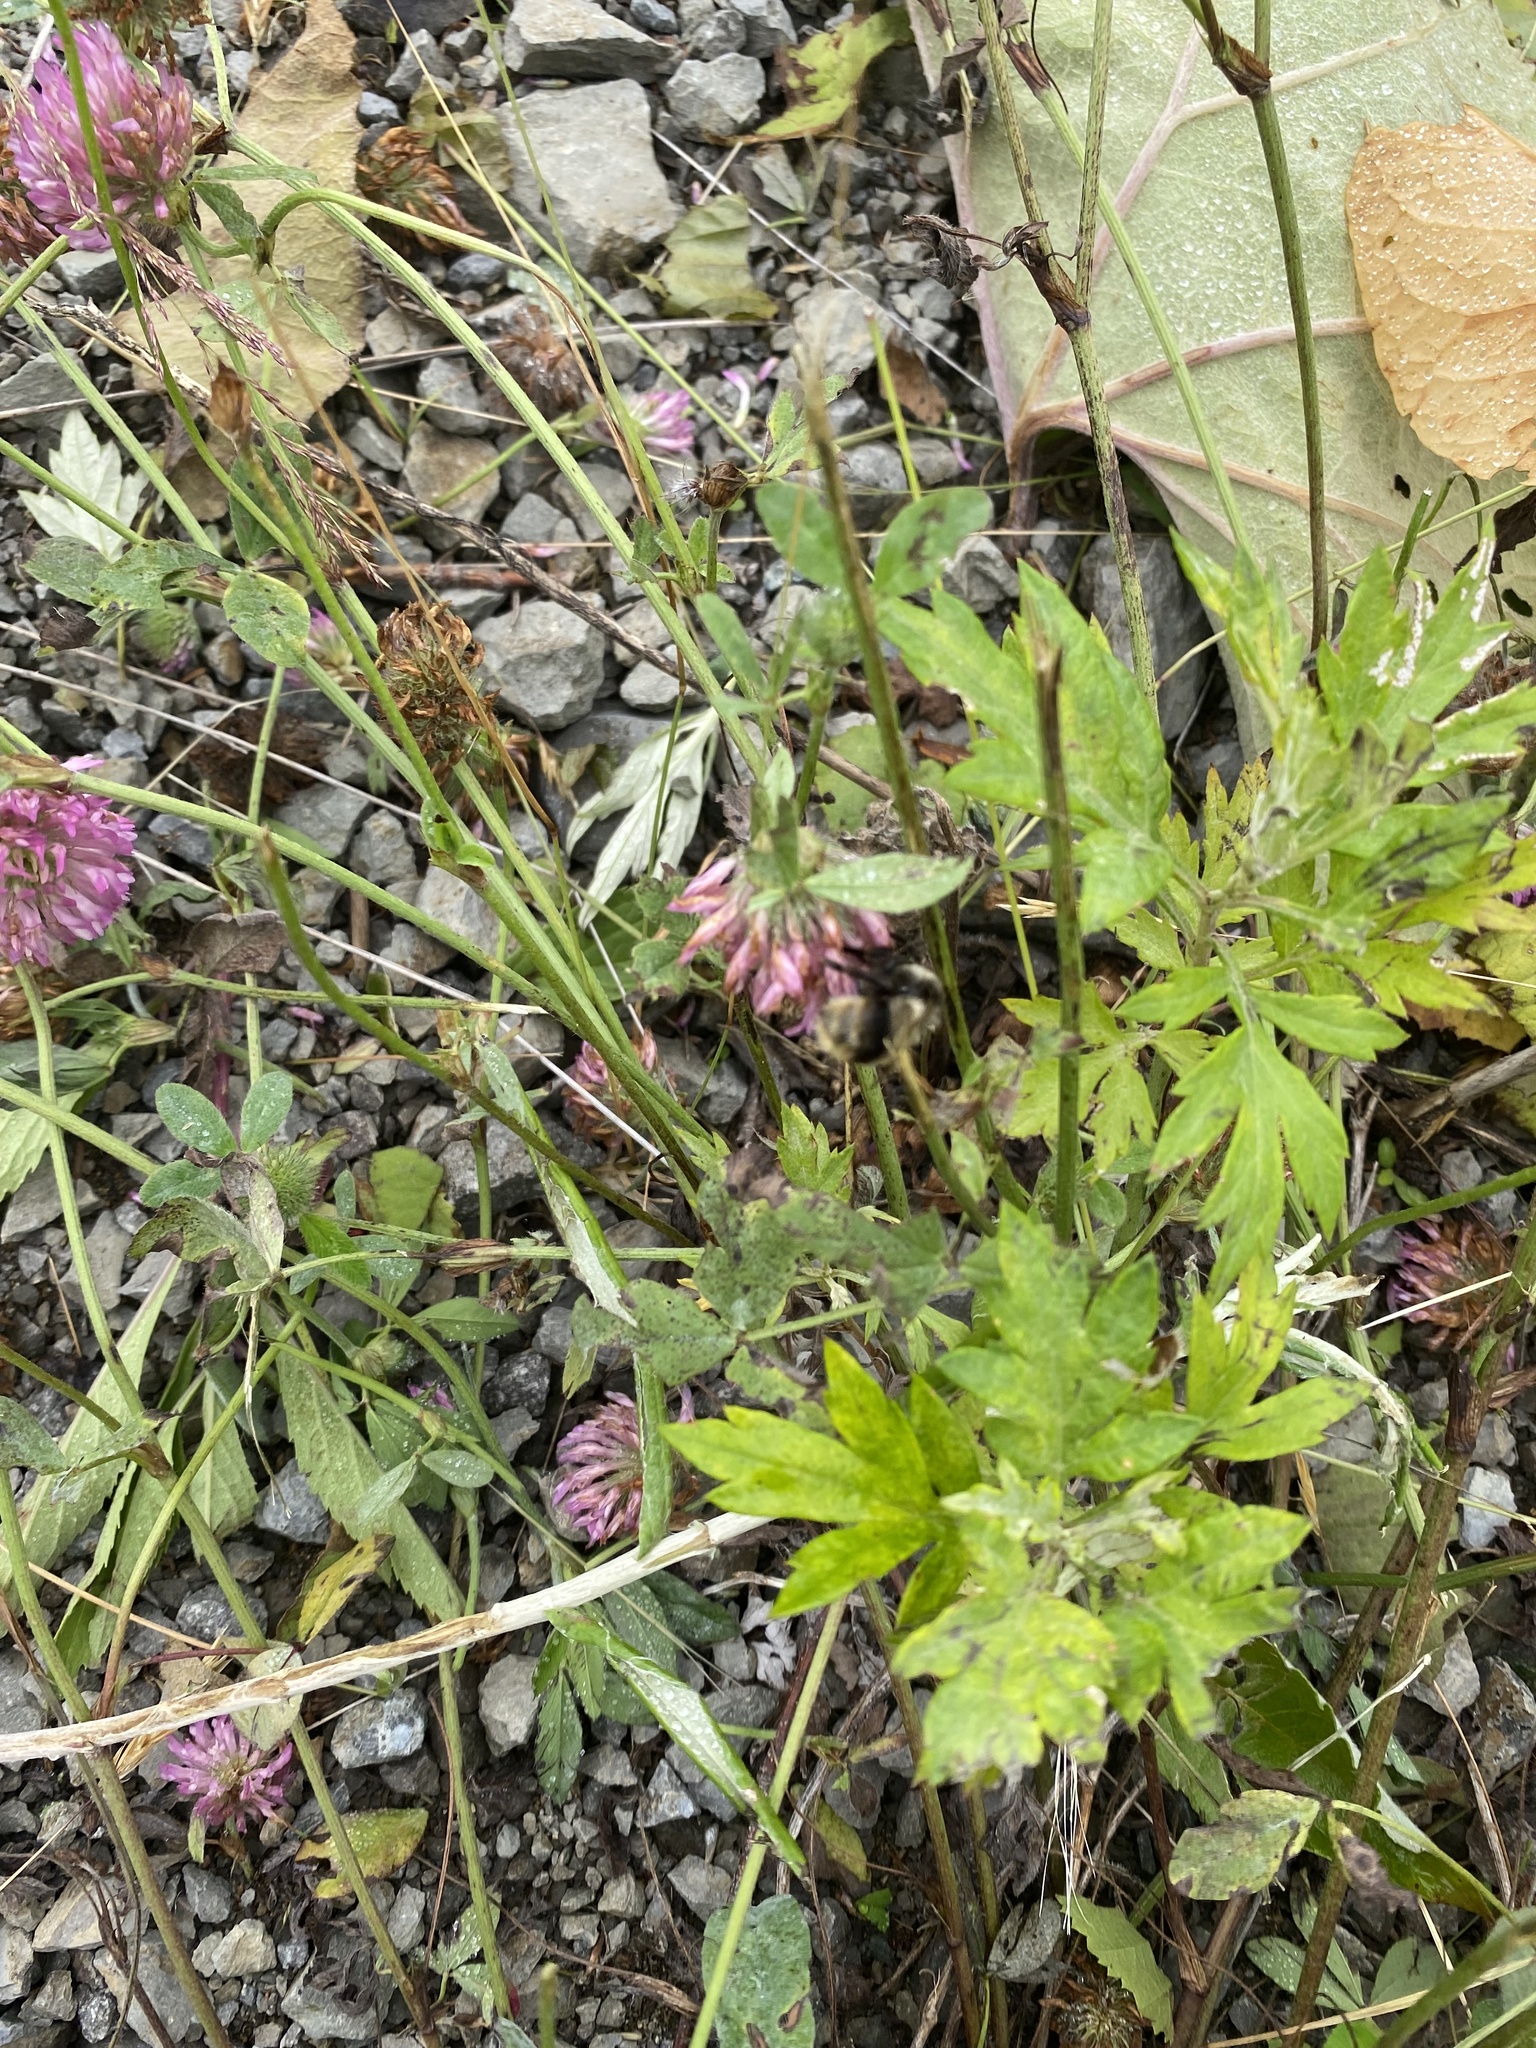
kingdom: Plantae
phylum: Tracheophyta
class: Magnoliopsida
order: Fabales
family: Fabaceae
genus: Trifolium
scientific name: Trifolium pratense
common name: Red clover
